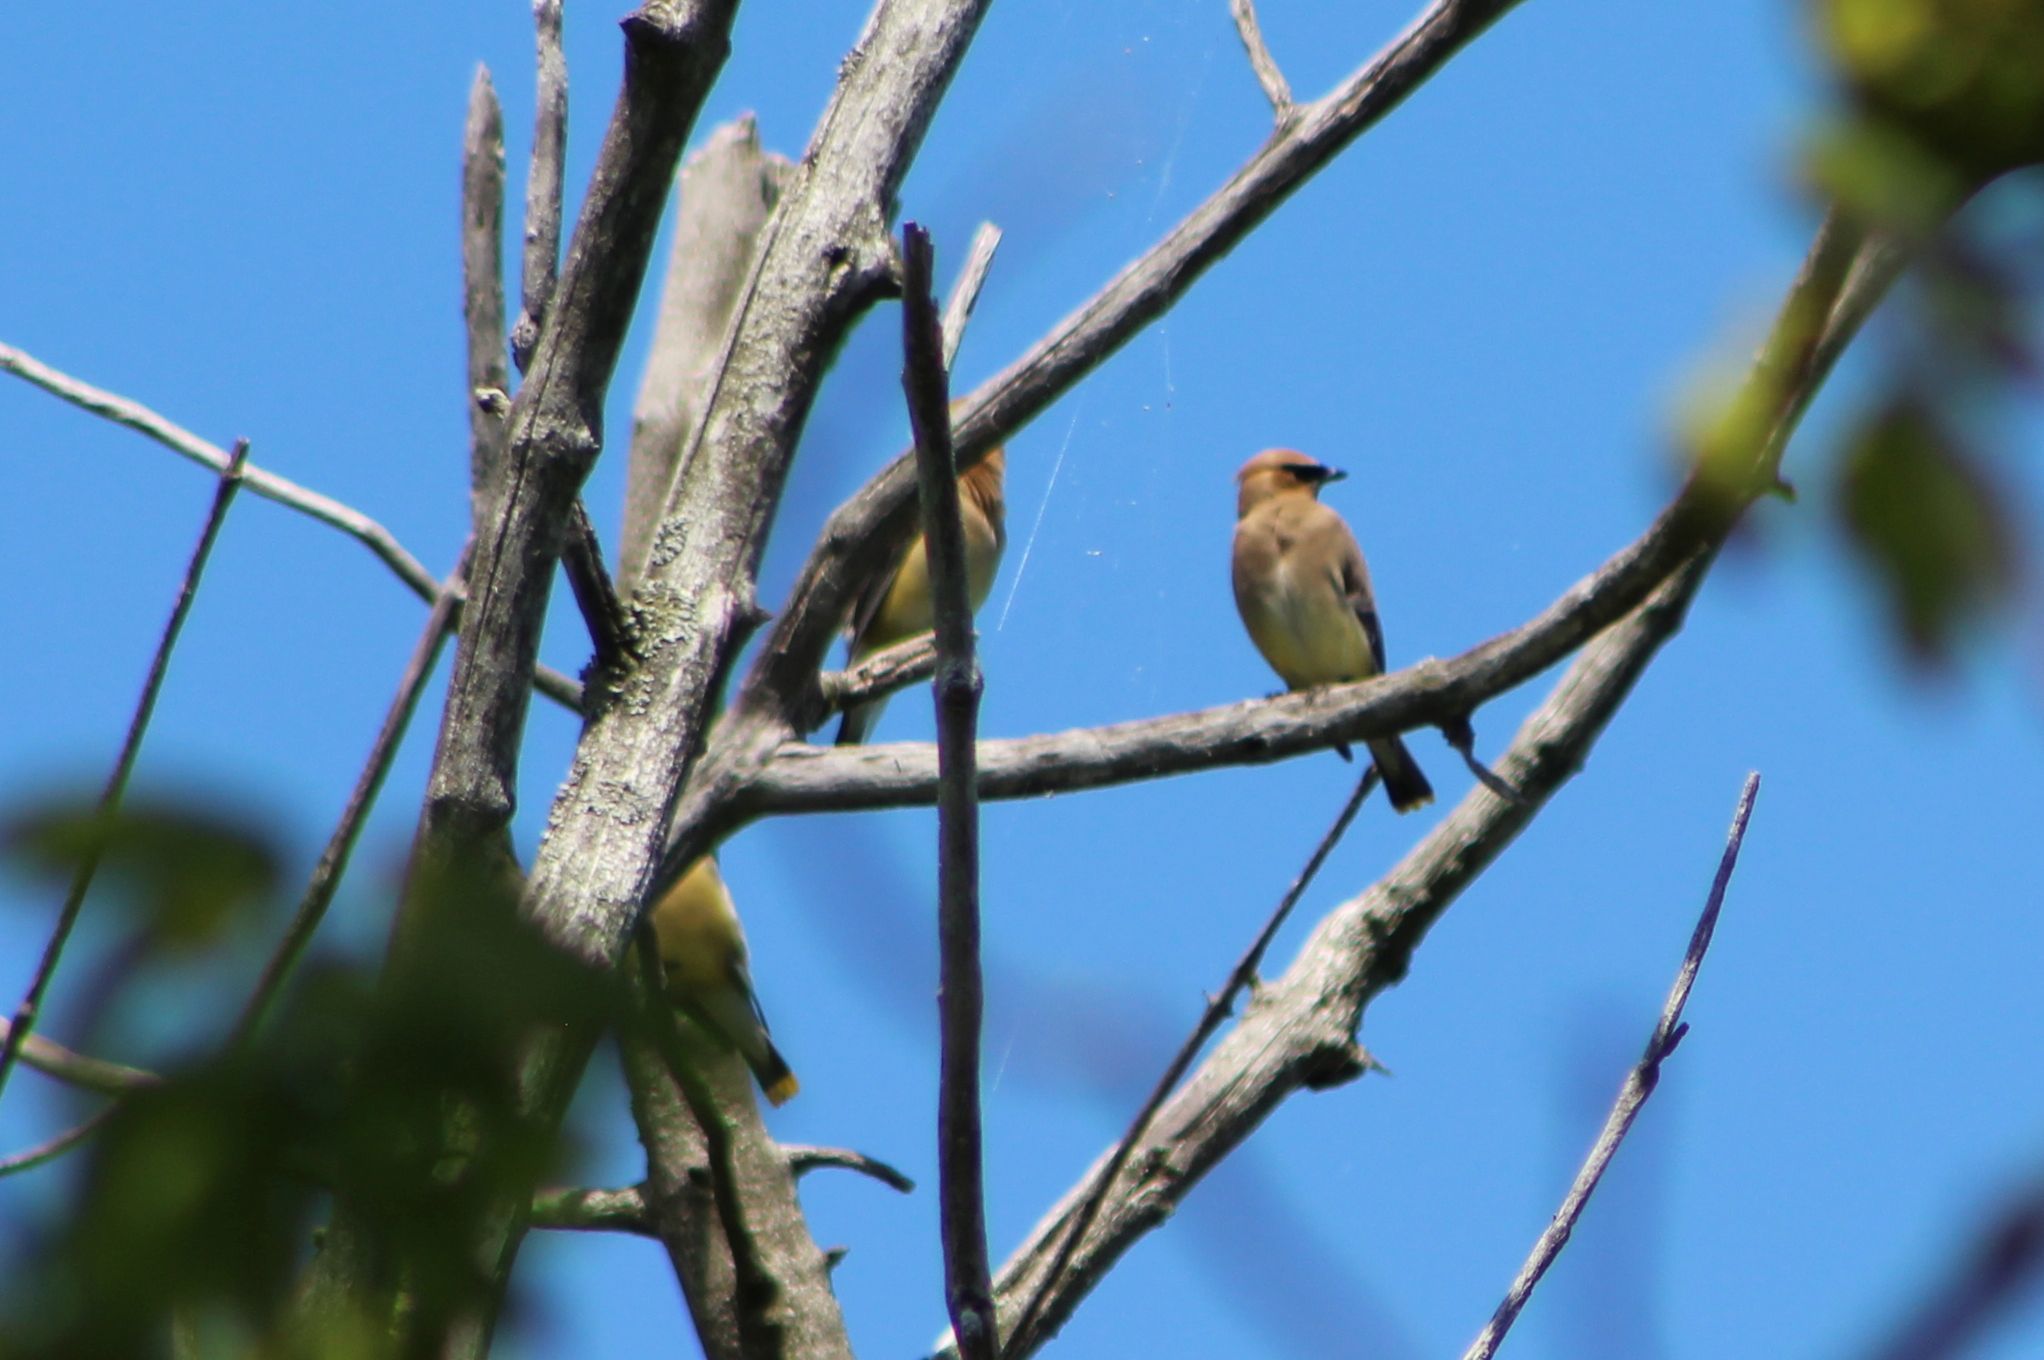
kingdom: Animalia
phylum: Chordata
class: Aves
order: Passeriformes
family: Bombycillidae
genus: Bombycilla
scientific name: Bombycilla cedrorum
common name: Cedar waxwing
